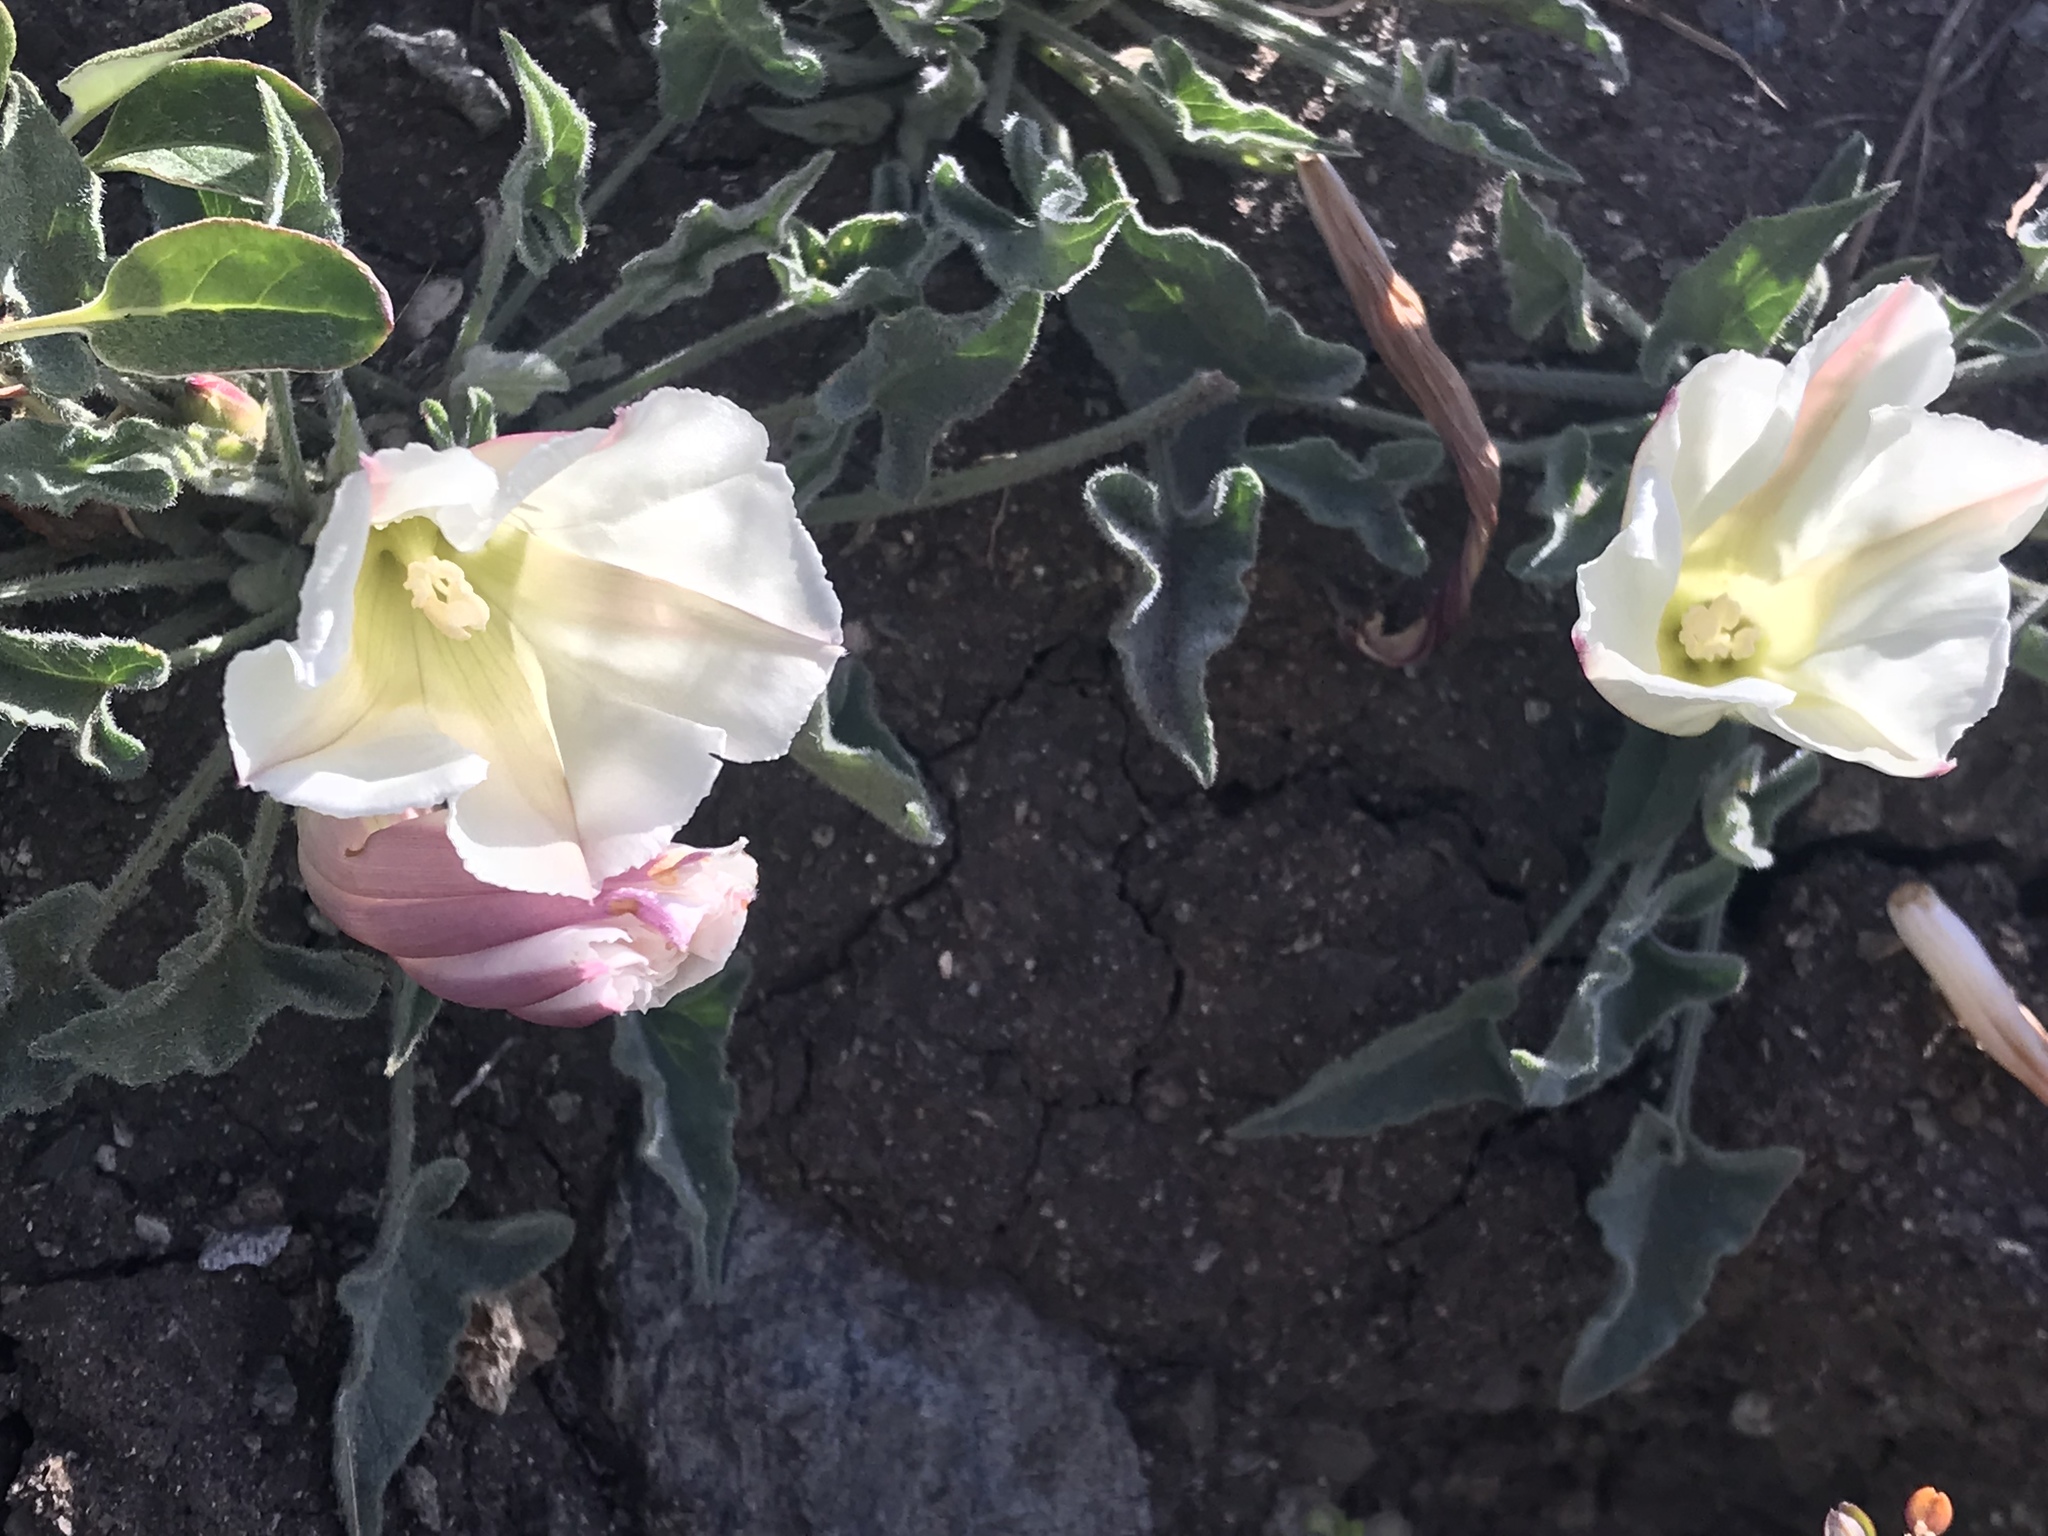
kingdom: Plantae
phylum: Tracheophyta
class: Magnoliopsida
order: Solanales
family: Convolvulaceae
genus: Calystegia
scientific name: Calystegia collina
